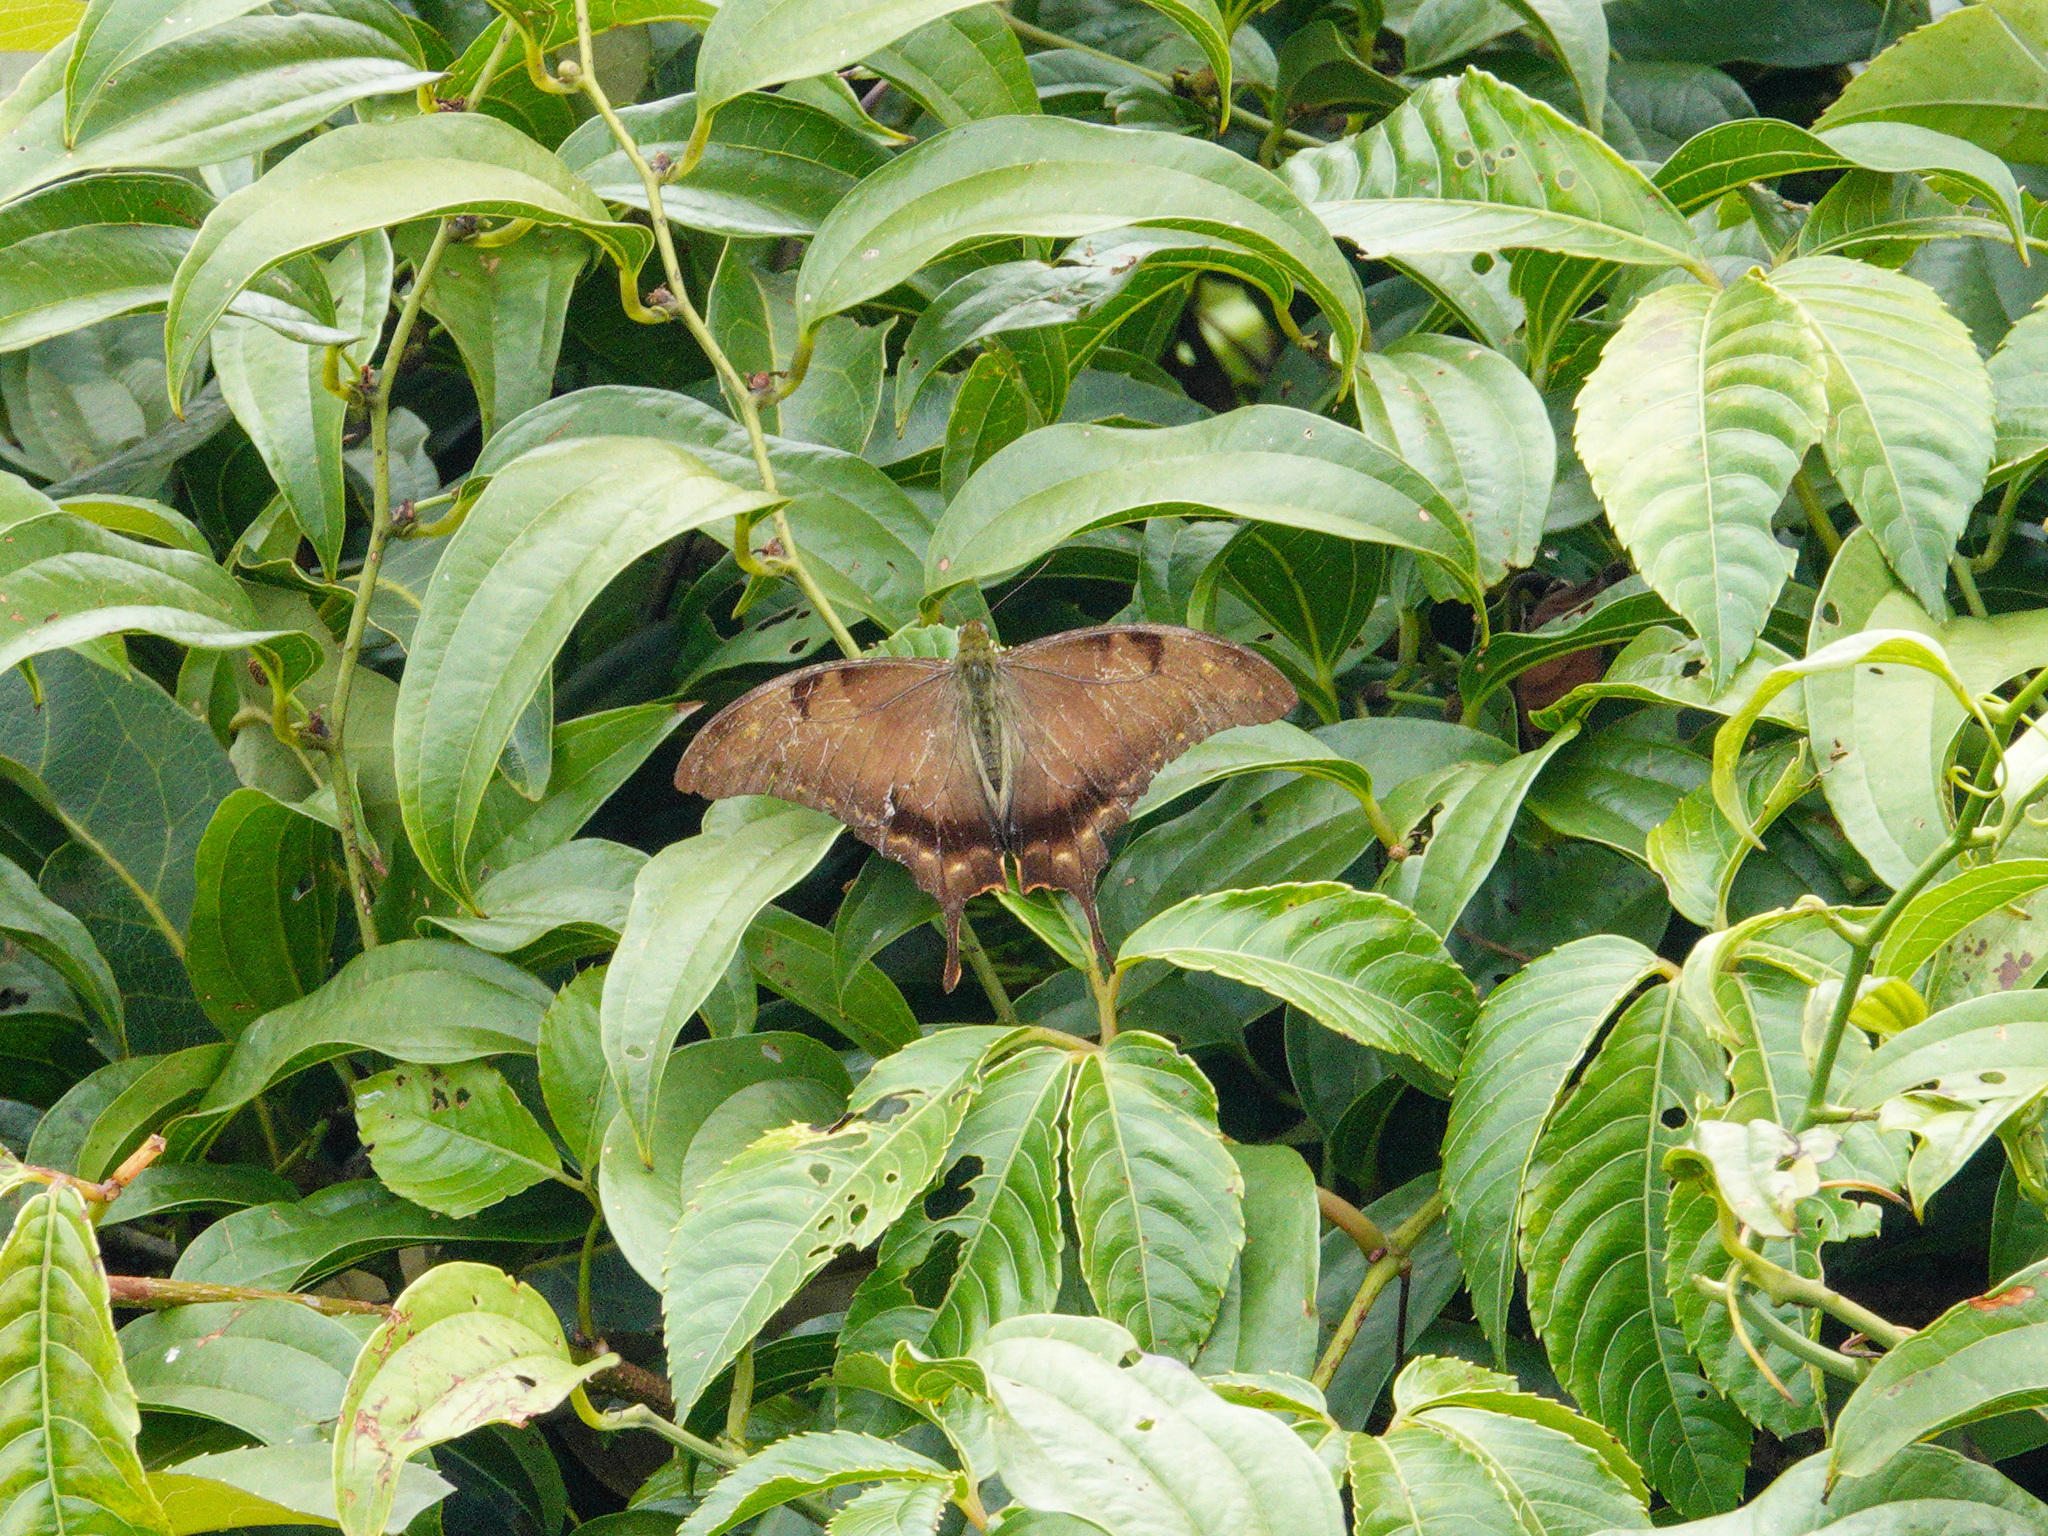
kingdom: Animalia
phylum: Arthropoda
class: Insecta
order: Lepidoptera
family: Papilionidae
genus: Meandrusa
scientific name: Meandrusa lachinus
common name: Brown gorgon
